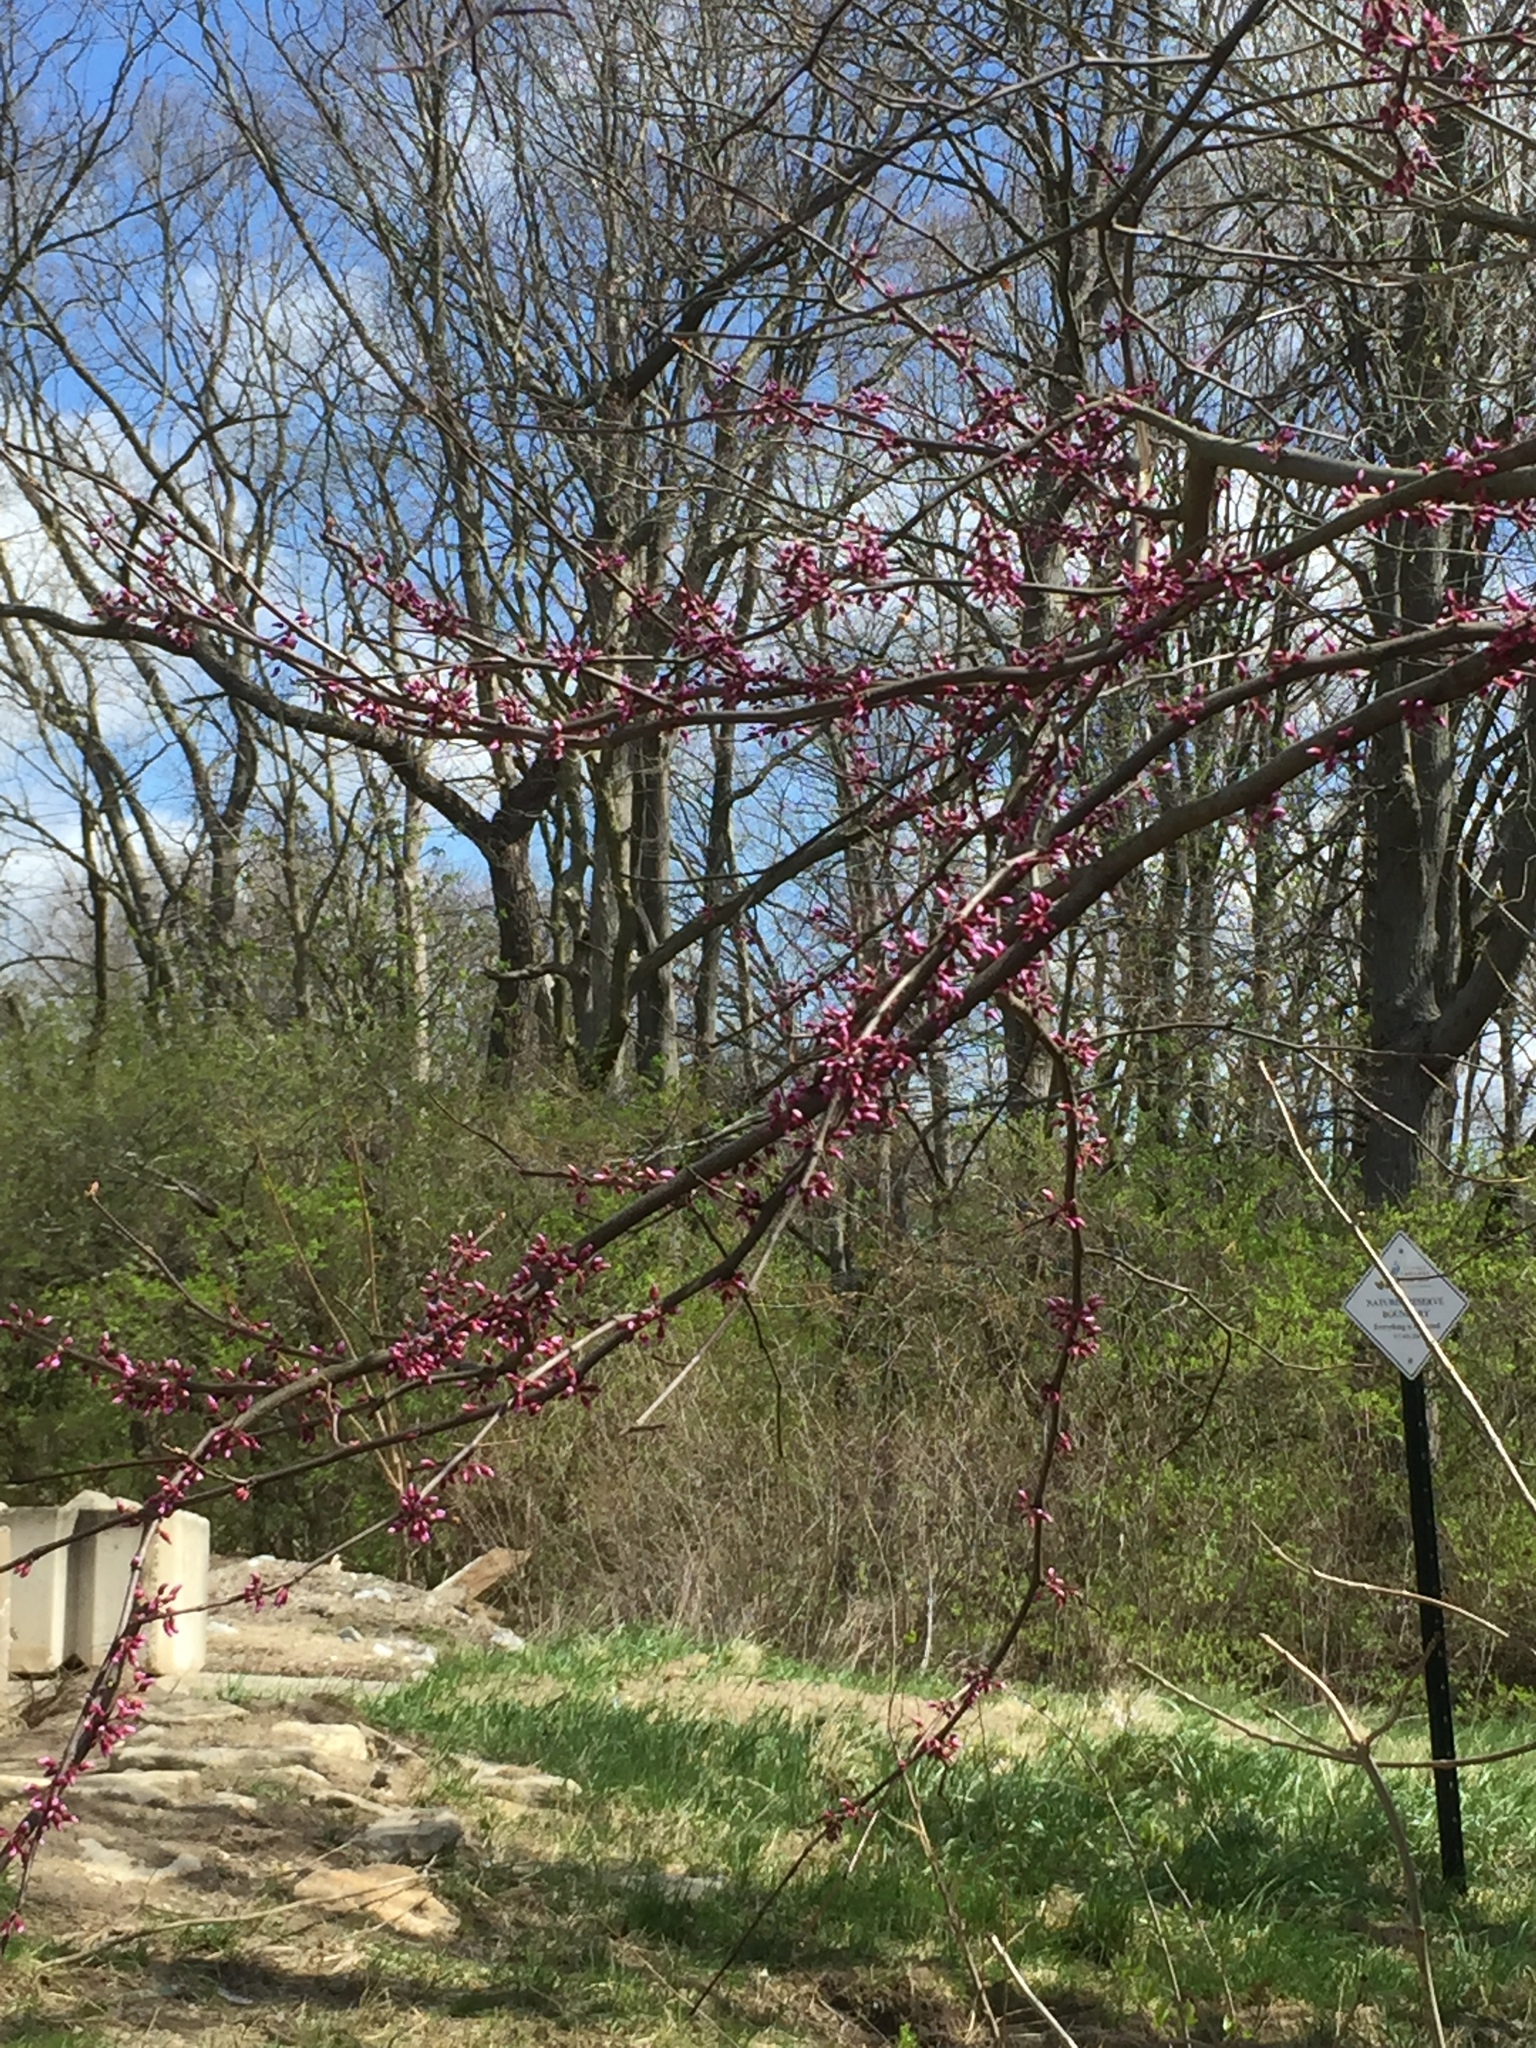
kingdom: Plantae
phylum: Tracheophyta
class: Magnoliopsida
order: Fabales
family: Fabaceae
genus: Cercis
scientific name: Cercis canadensis
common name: Eastern redbud
